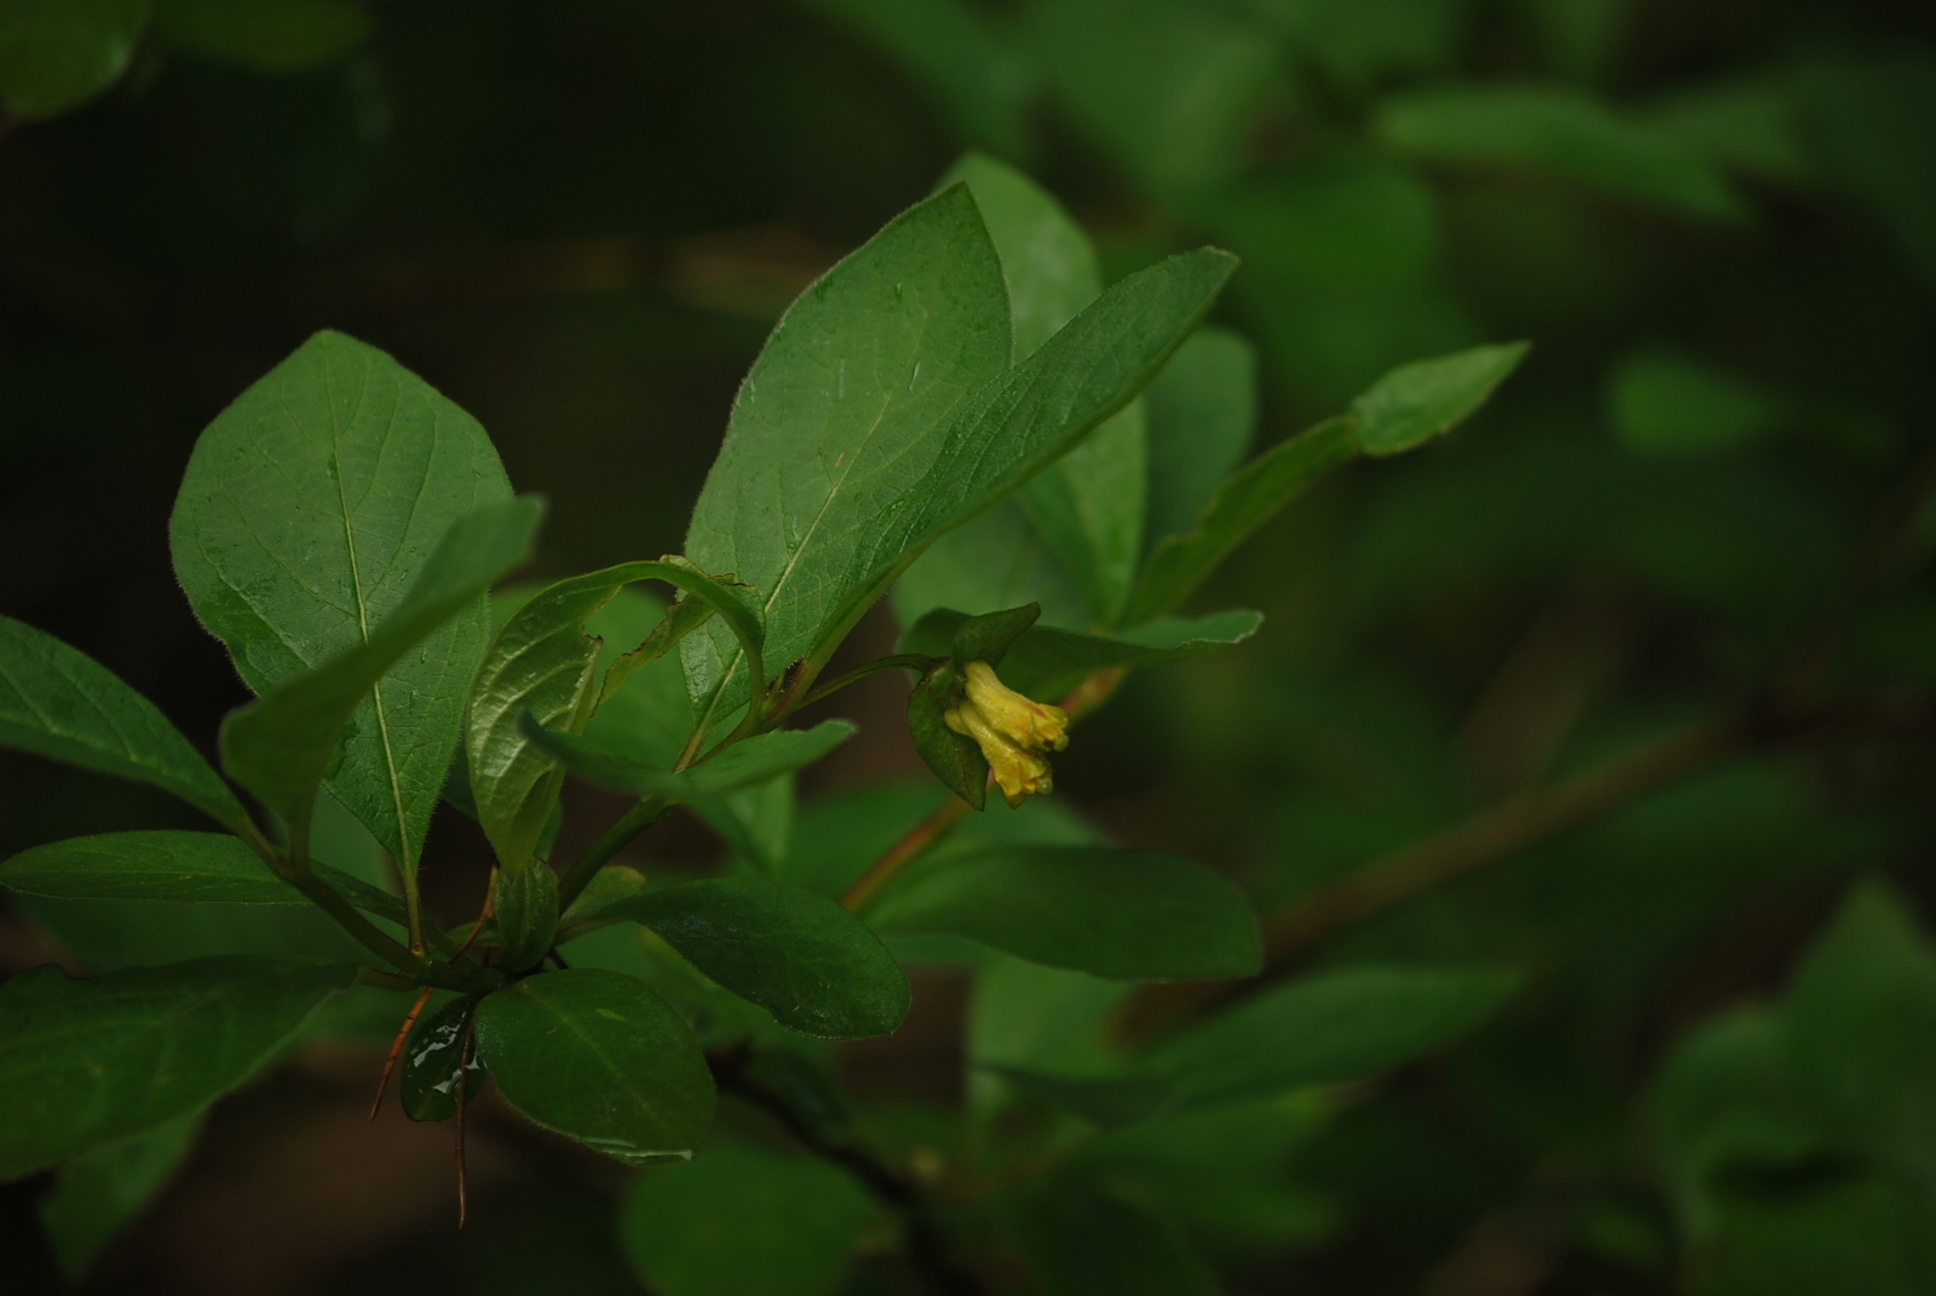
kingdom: Plantae
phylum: Tracheophyta
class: Magnoliopsida
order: Dipsacales
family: Caprifoliaceae
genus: Lonicera
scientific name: Lonicera involucrata
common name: Californian honeysuckle
